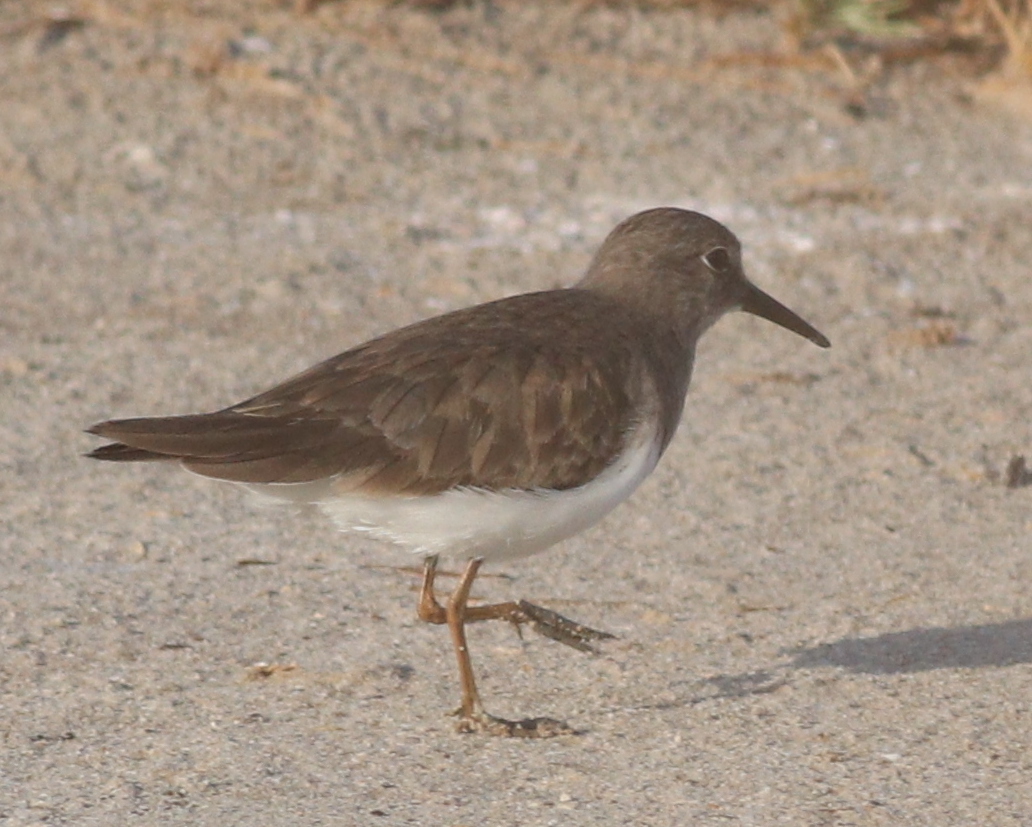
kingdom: Animalia
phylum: Chordata
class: Aves
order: Charadriiformes
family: Scolopacidae
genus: Calidris
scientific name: Calidris temminckii
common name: Temminck's stint
